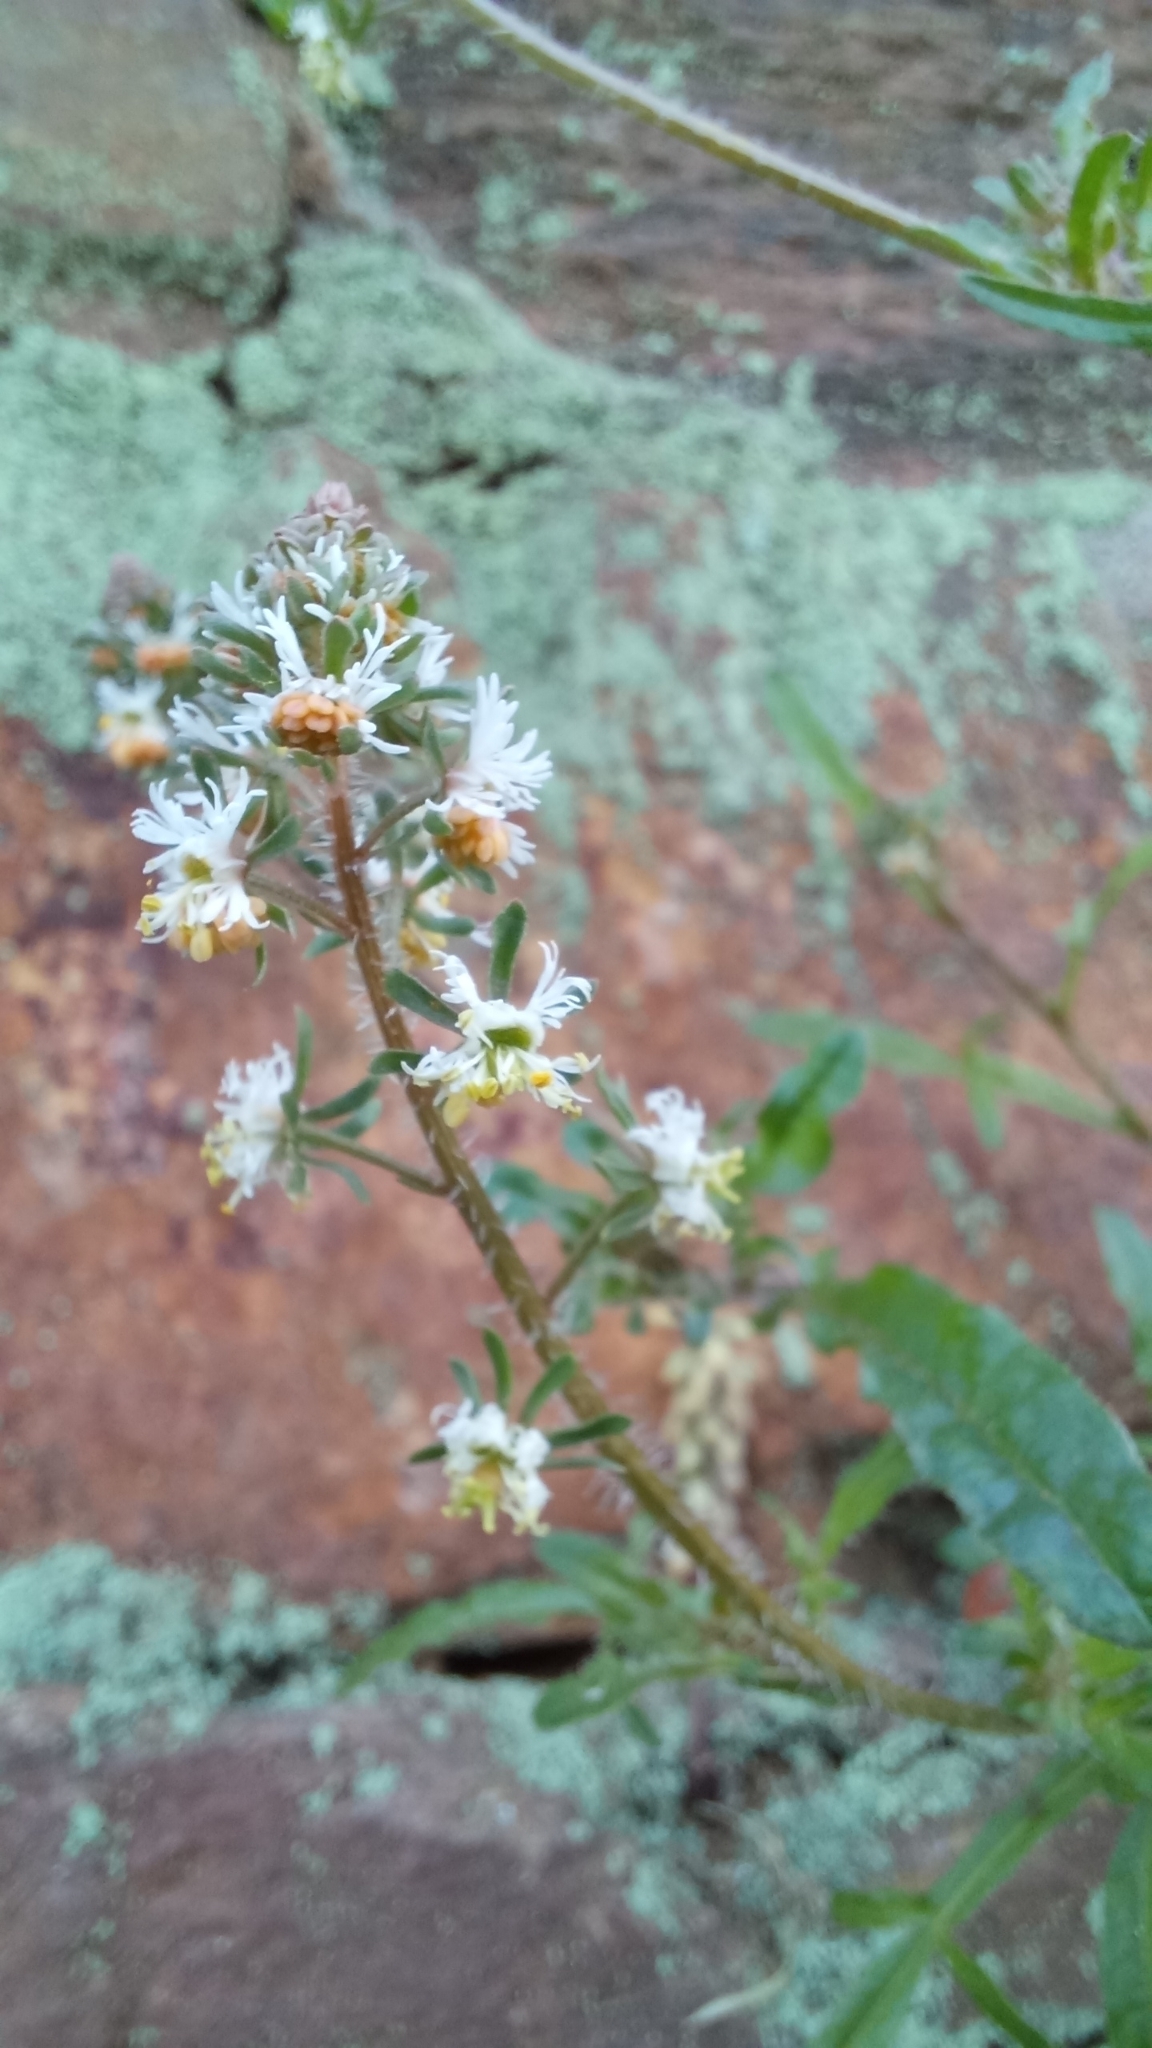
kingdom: Plantae
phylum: Tracheophyta
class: Magnoliopsida
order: Brassicales
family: Resedaceae
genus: Reseda
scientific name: Reseda media
